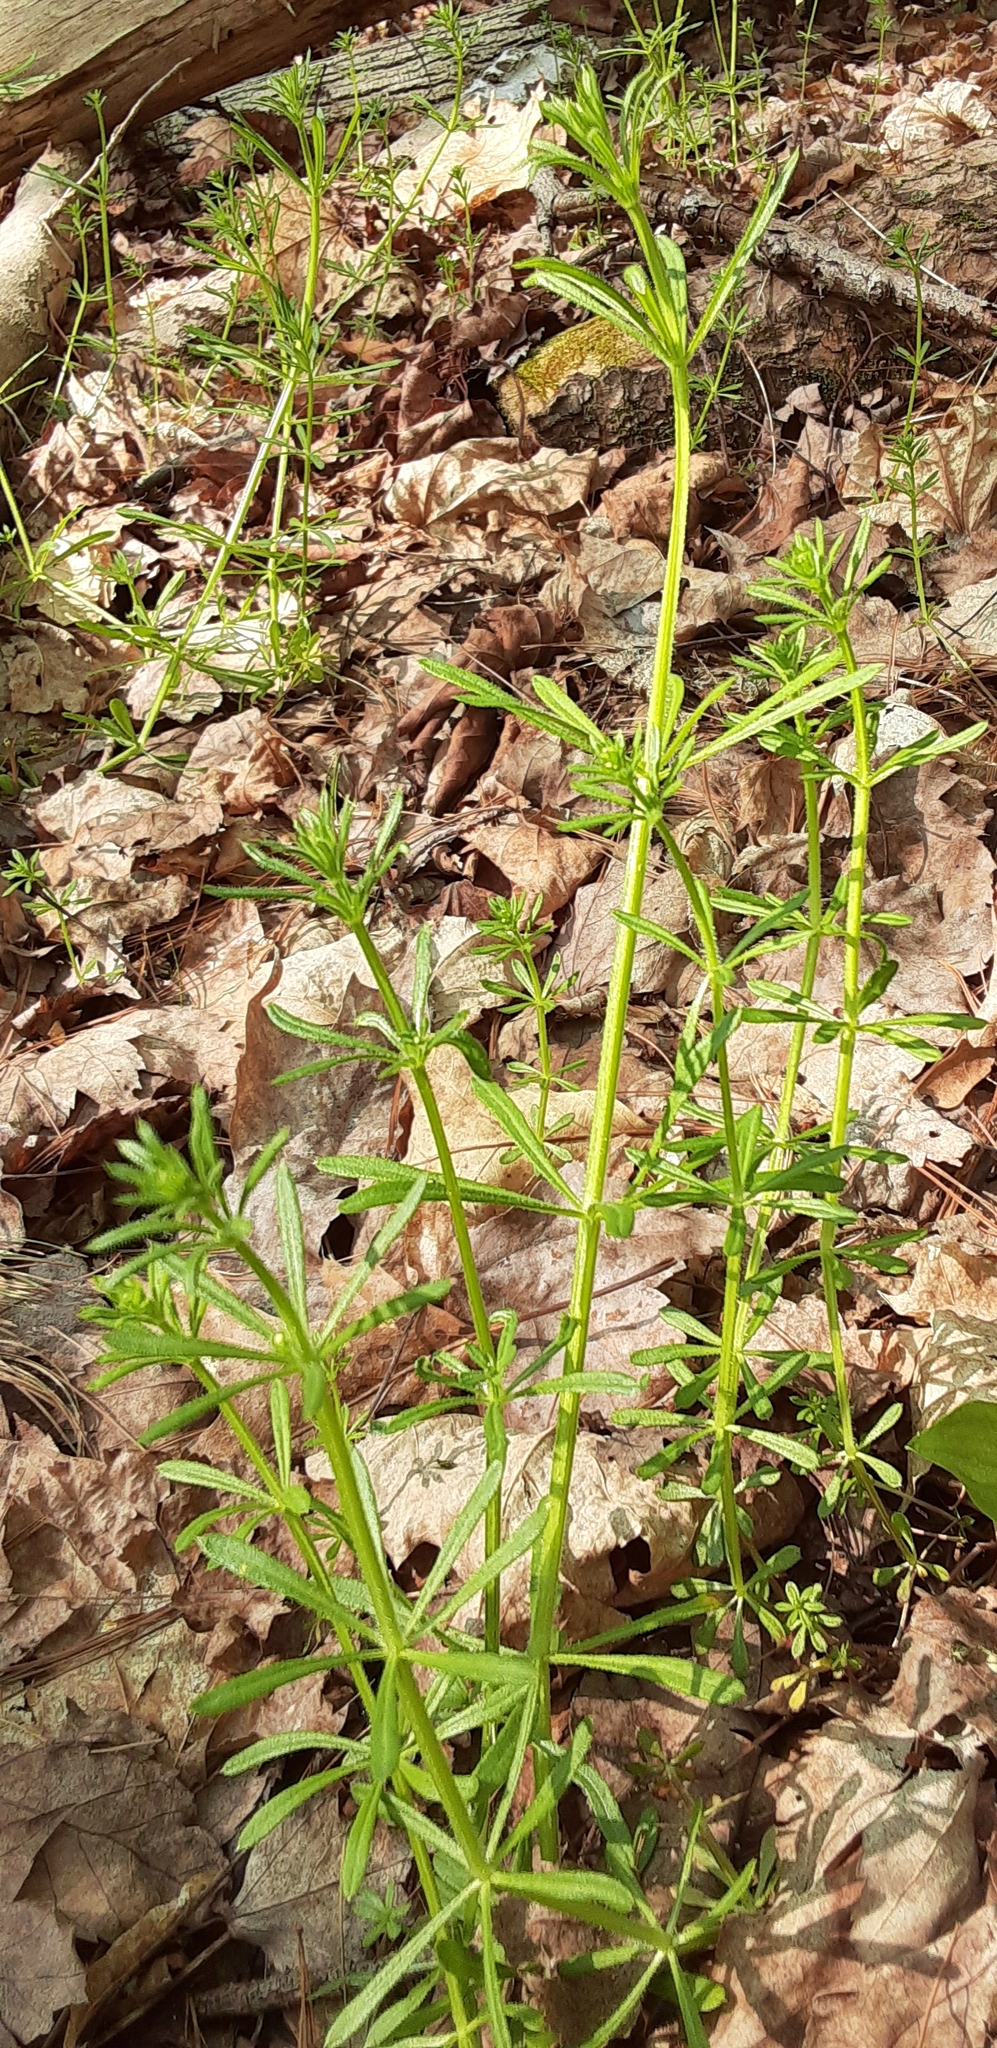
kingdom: Plantae
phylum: Tracheophyta
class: Magnoliopsida
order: Gentianales
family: Rubiaceae
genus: Galium
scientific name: Galium aparine
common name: Cleavers
